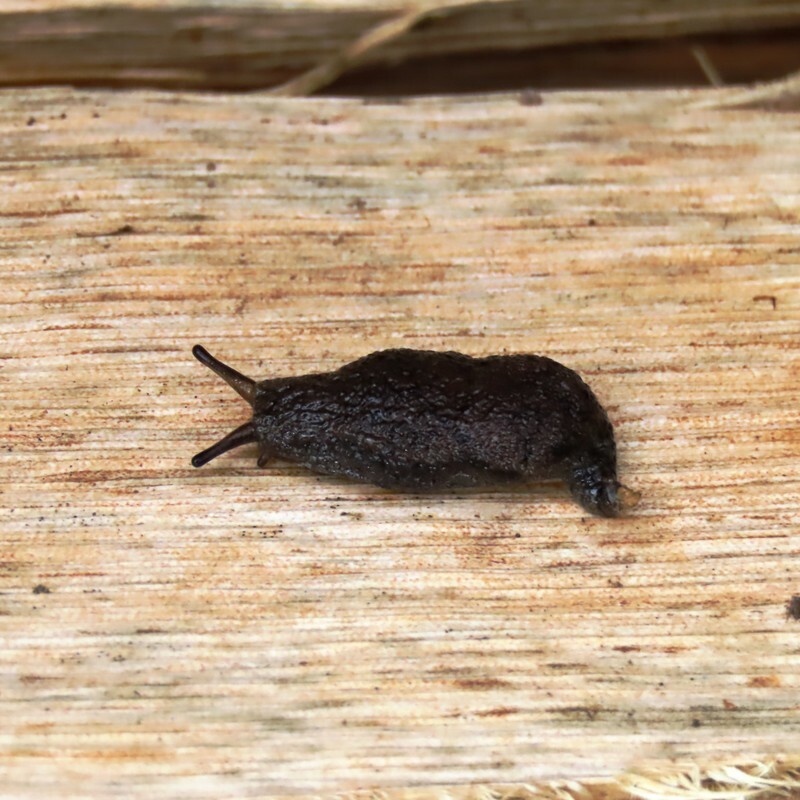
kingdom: Animalia
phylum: Mollusca
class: Gastropoda
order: Stylommatophora
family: Cystopeltidae
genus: Cystopelta
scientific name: Cystopelta
